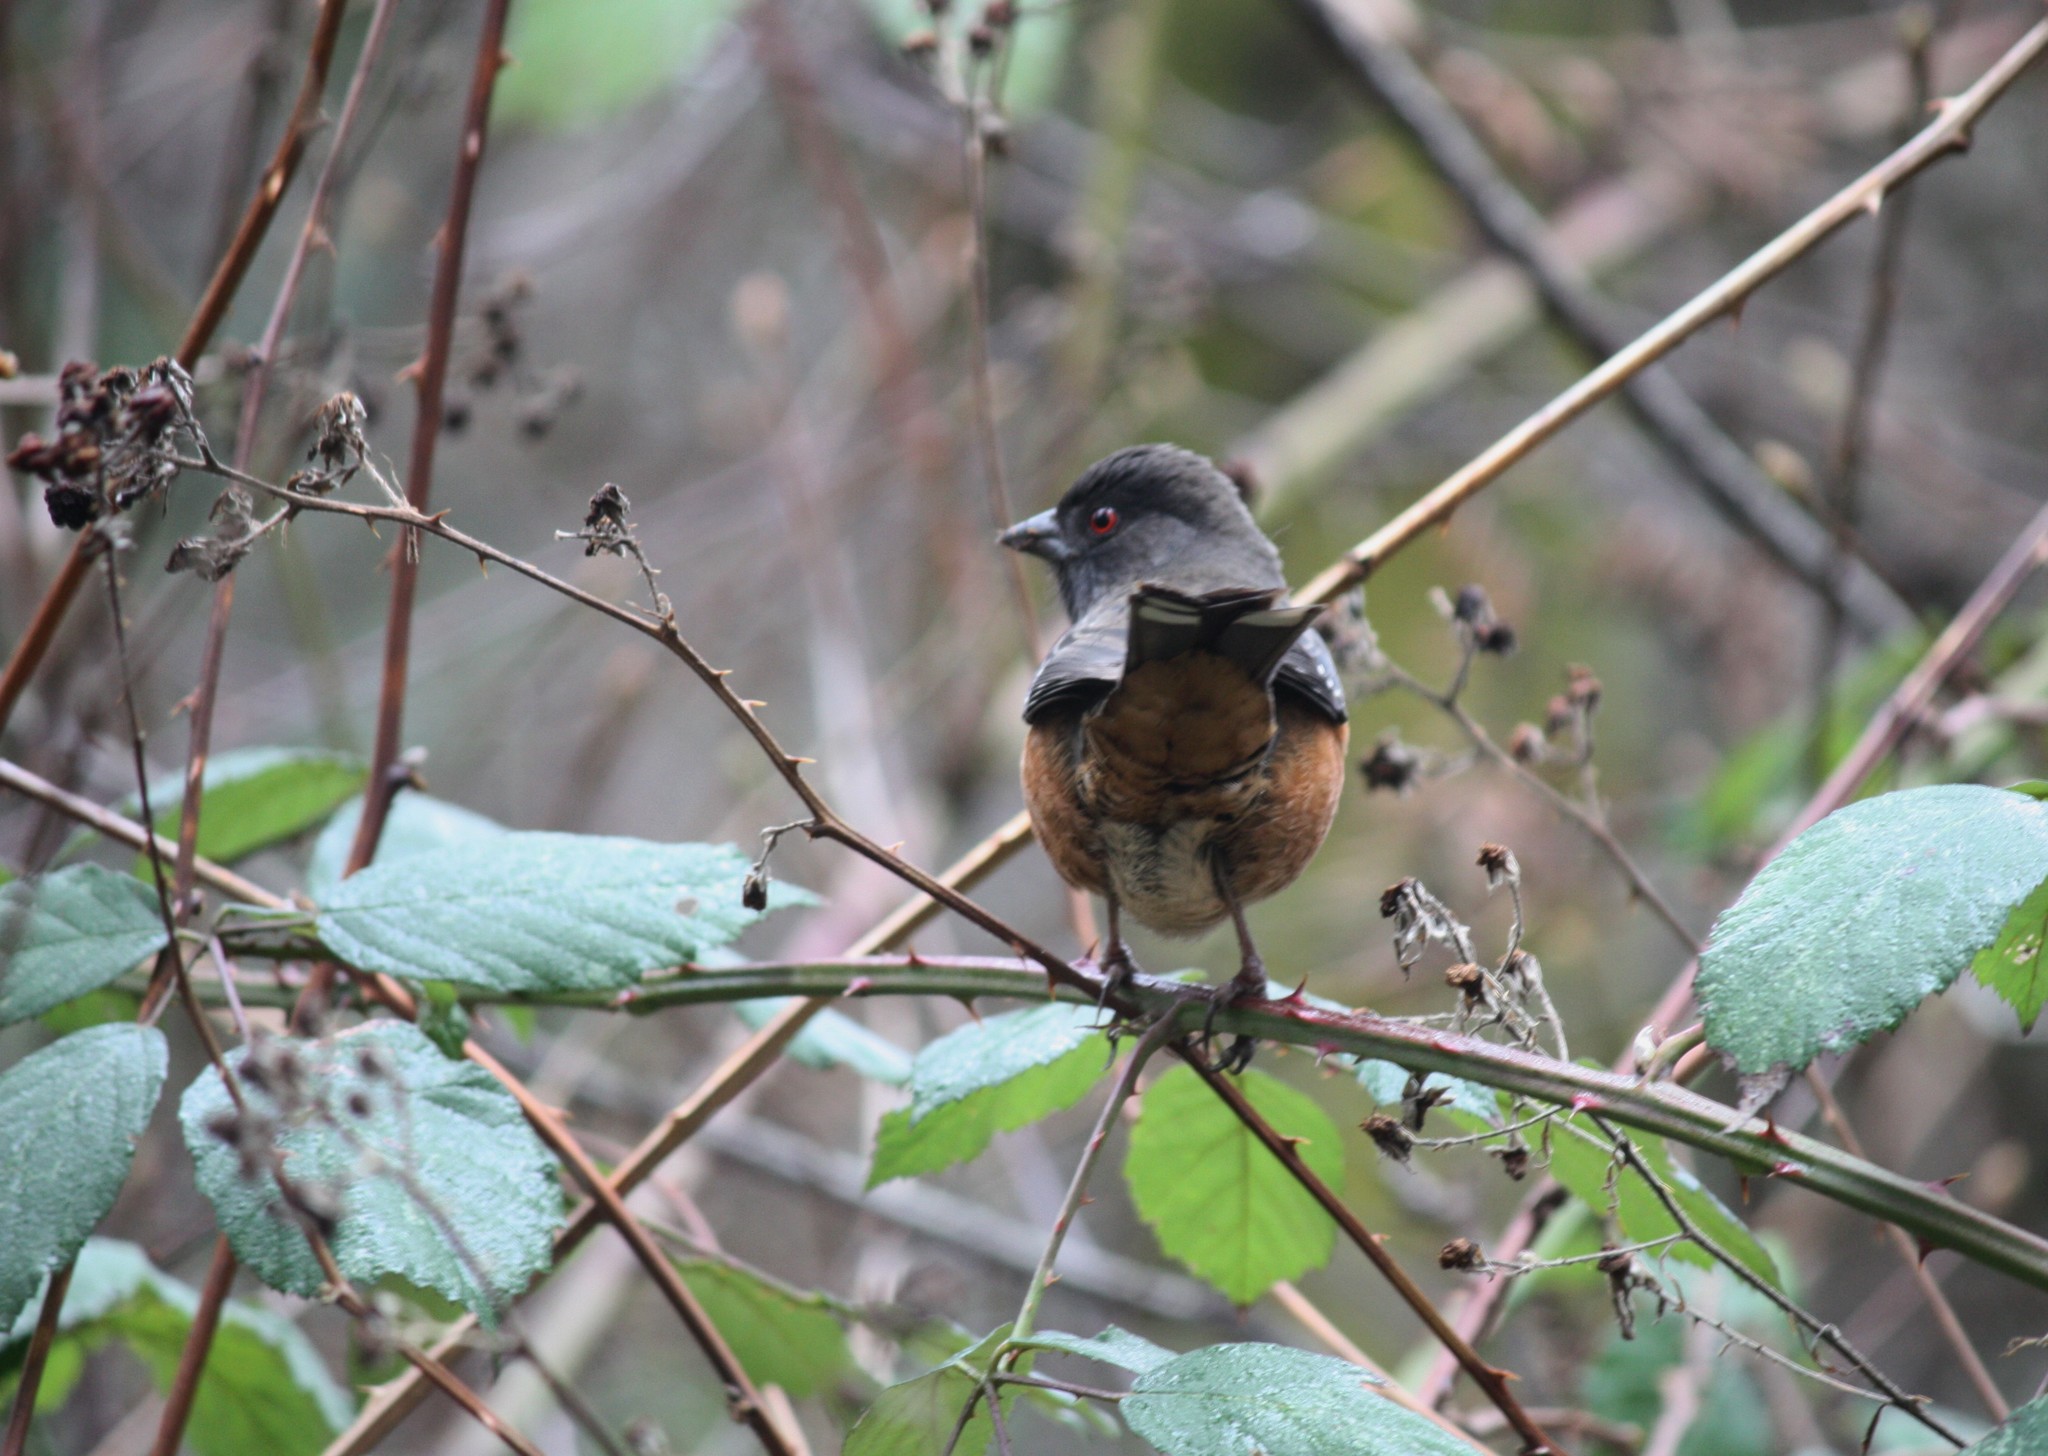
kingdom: Animalia
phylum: Chordata
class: Aves
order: Passeriformes
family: Passerellidae
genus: Pipilo
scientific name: Pipilo maculatus
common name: Spotted towhee
